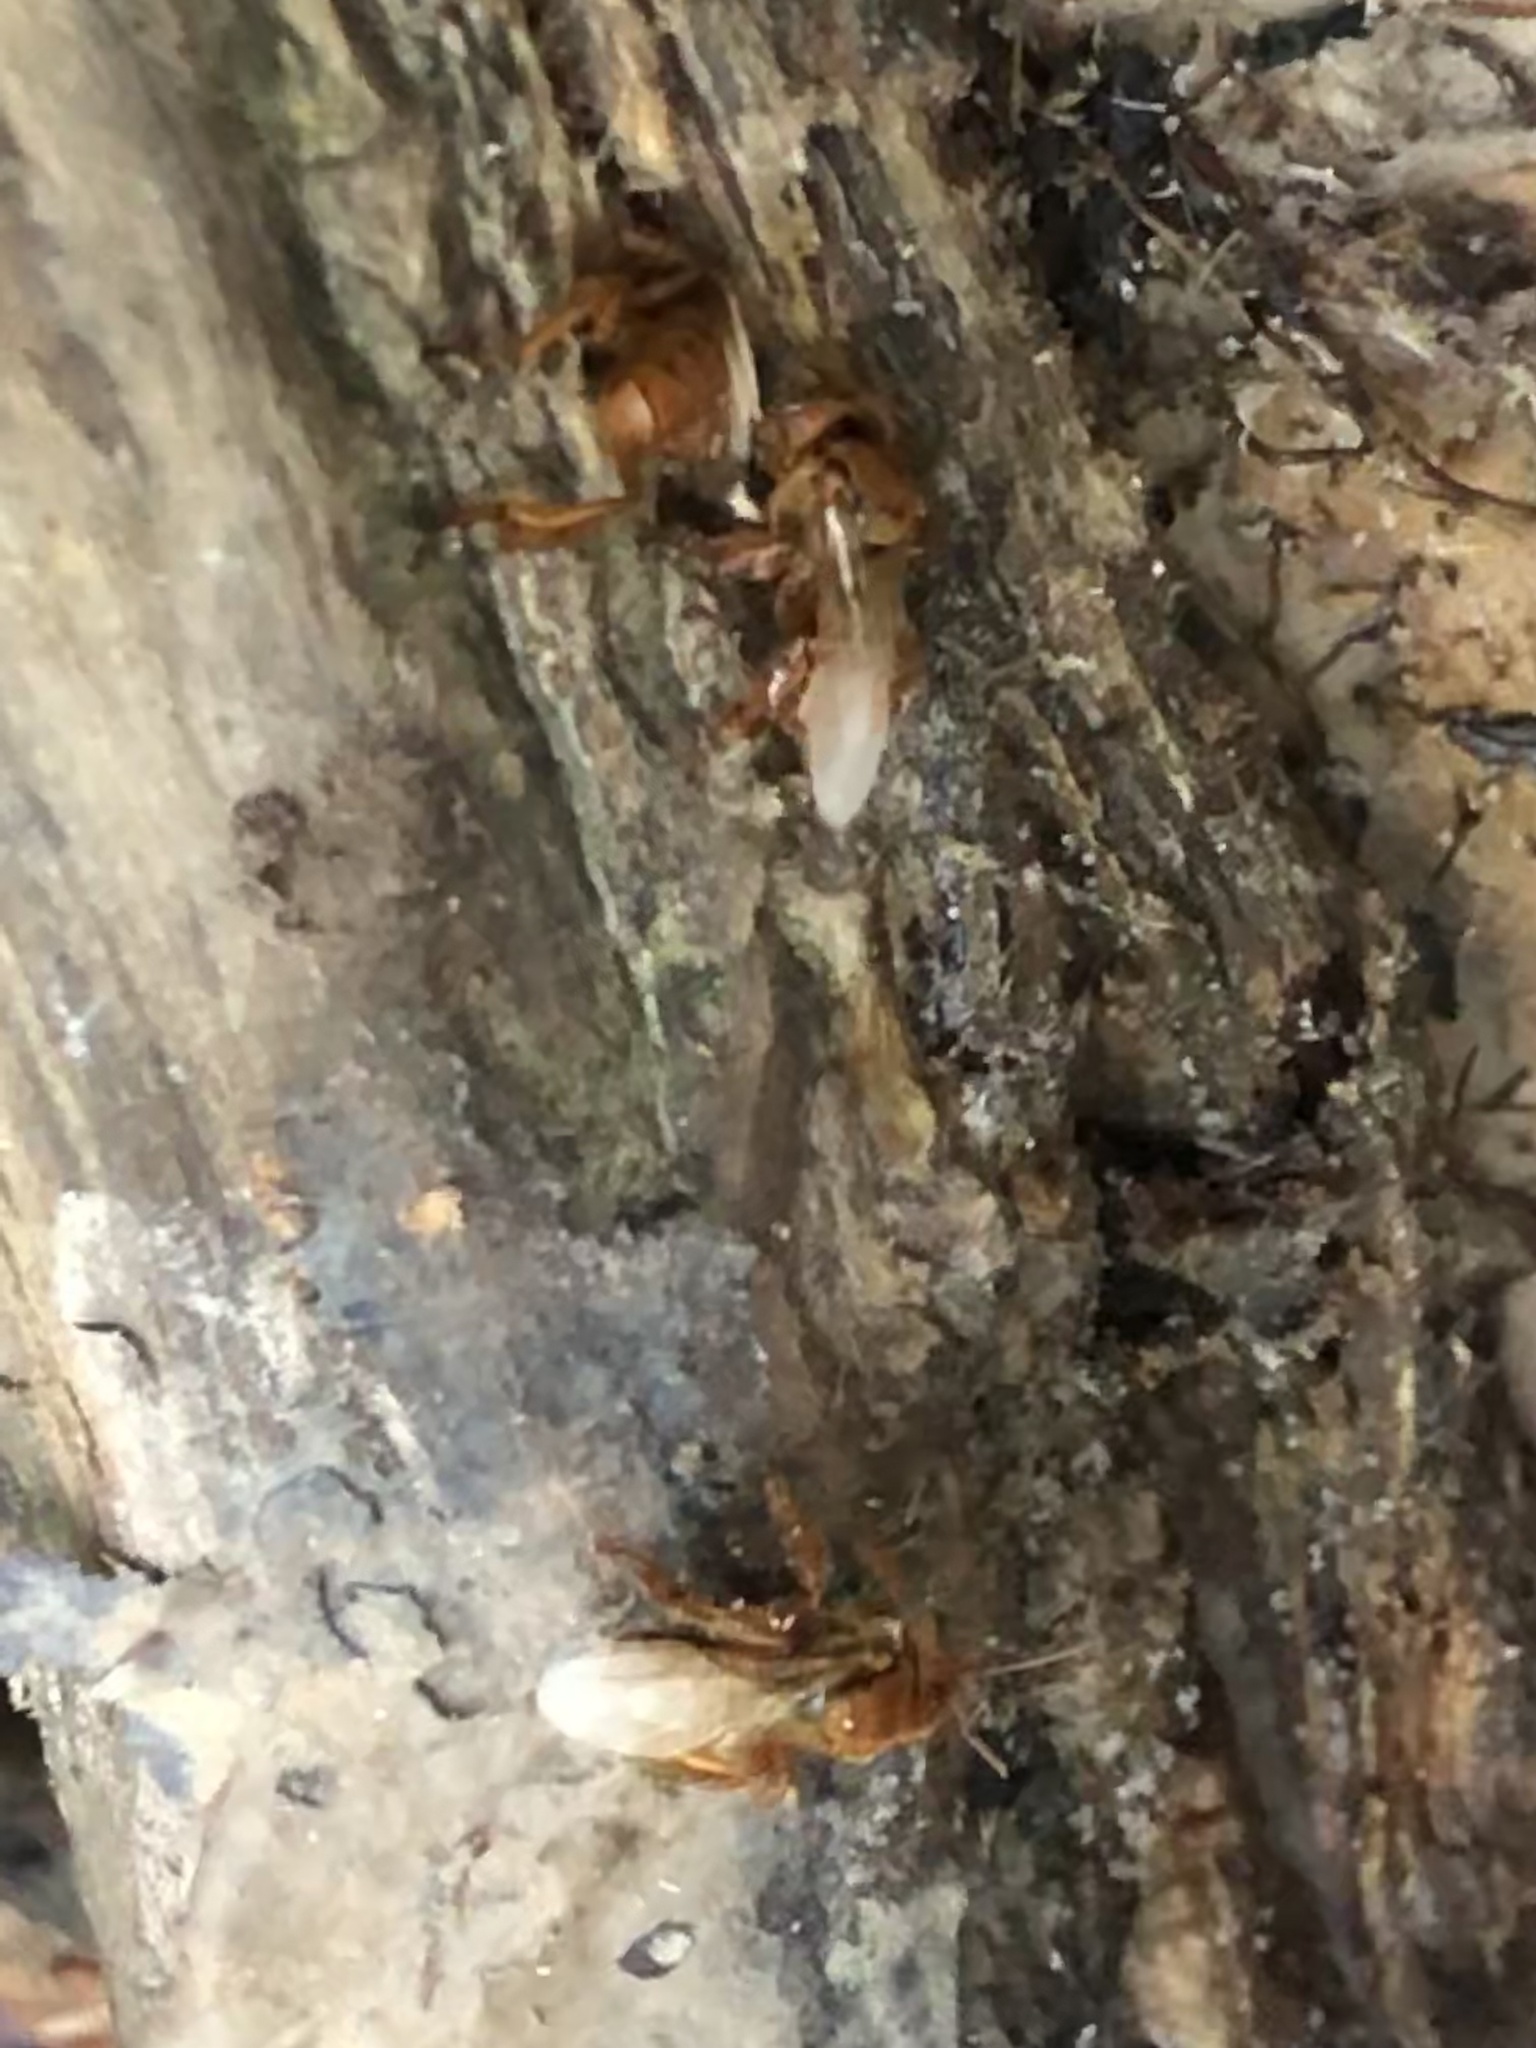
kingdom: Animalia
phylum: Arthropoda
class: Insecta
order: Hymenoptera
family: Apidae
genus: Trigona
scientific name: Trigona dallatorreana
